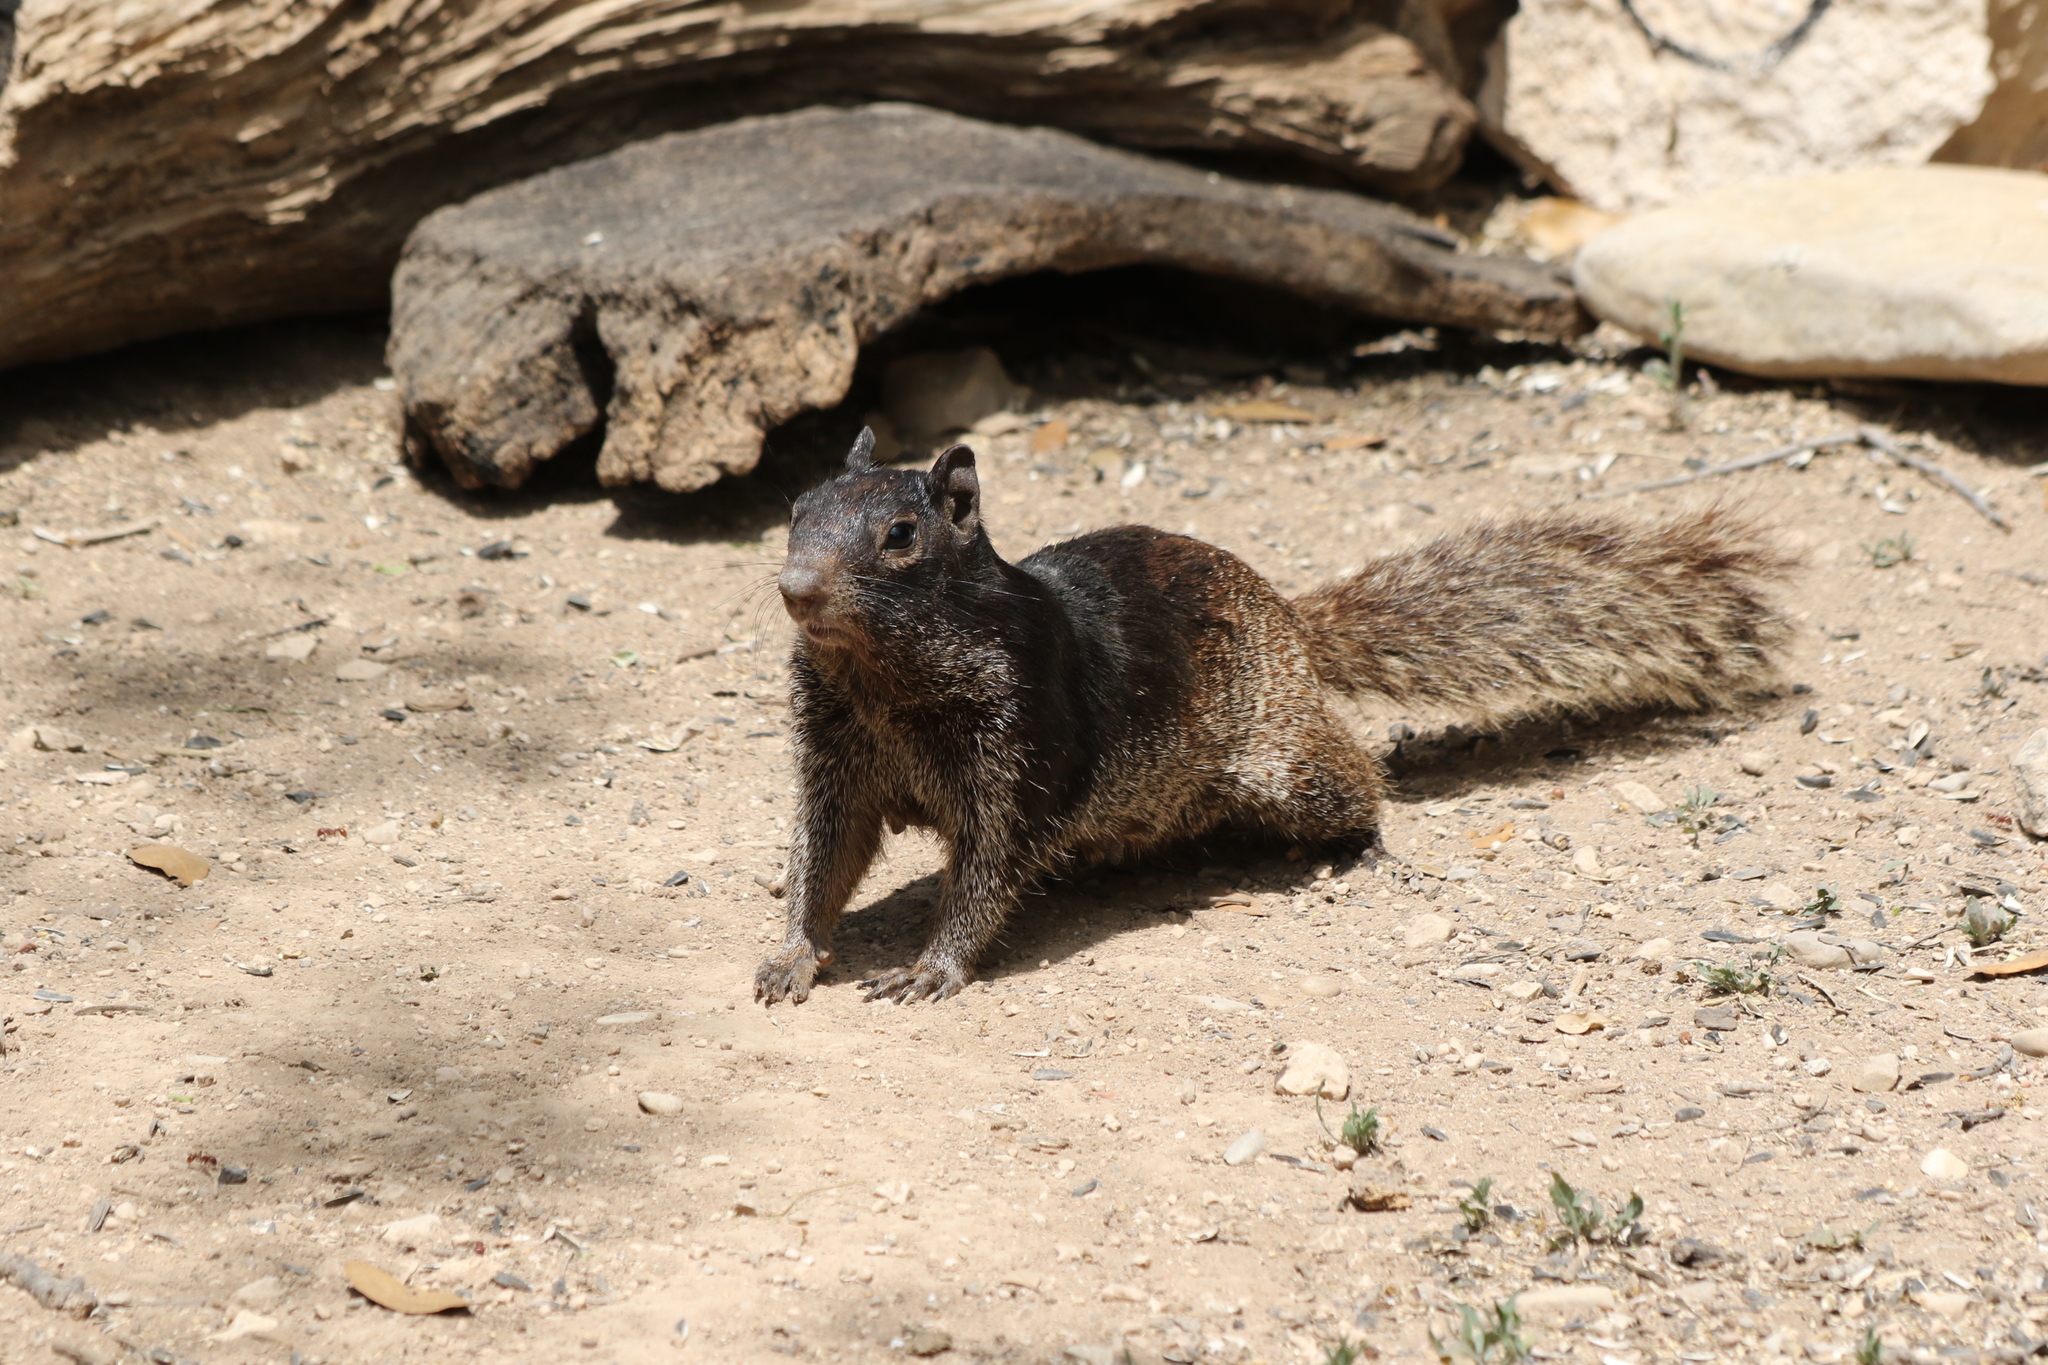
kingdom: Animalia
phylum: Chordata
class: Mammalia
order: Rodentia
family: Sciuridae
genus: Otospermophilus
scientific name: Otospermophilus variegatus
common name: Rock squirrel
